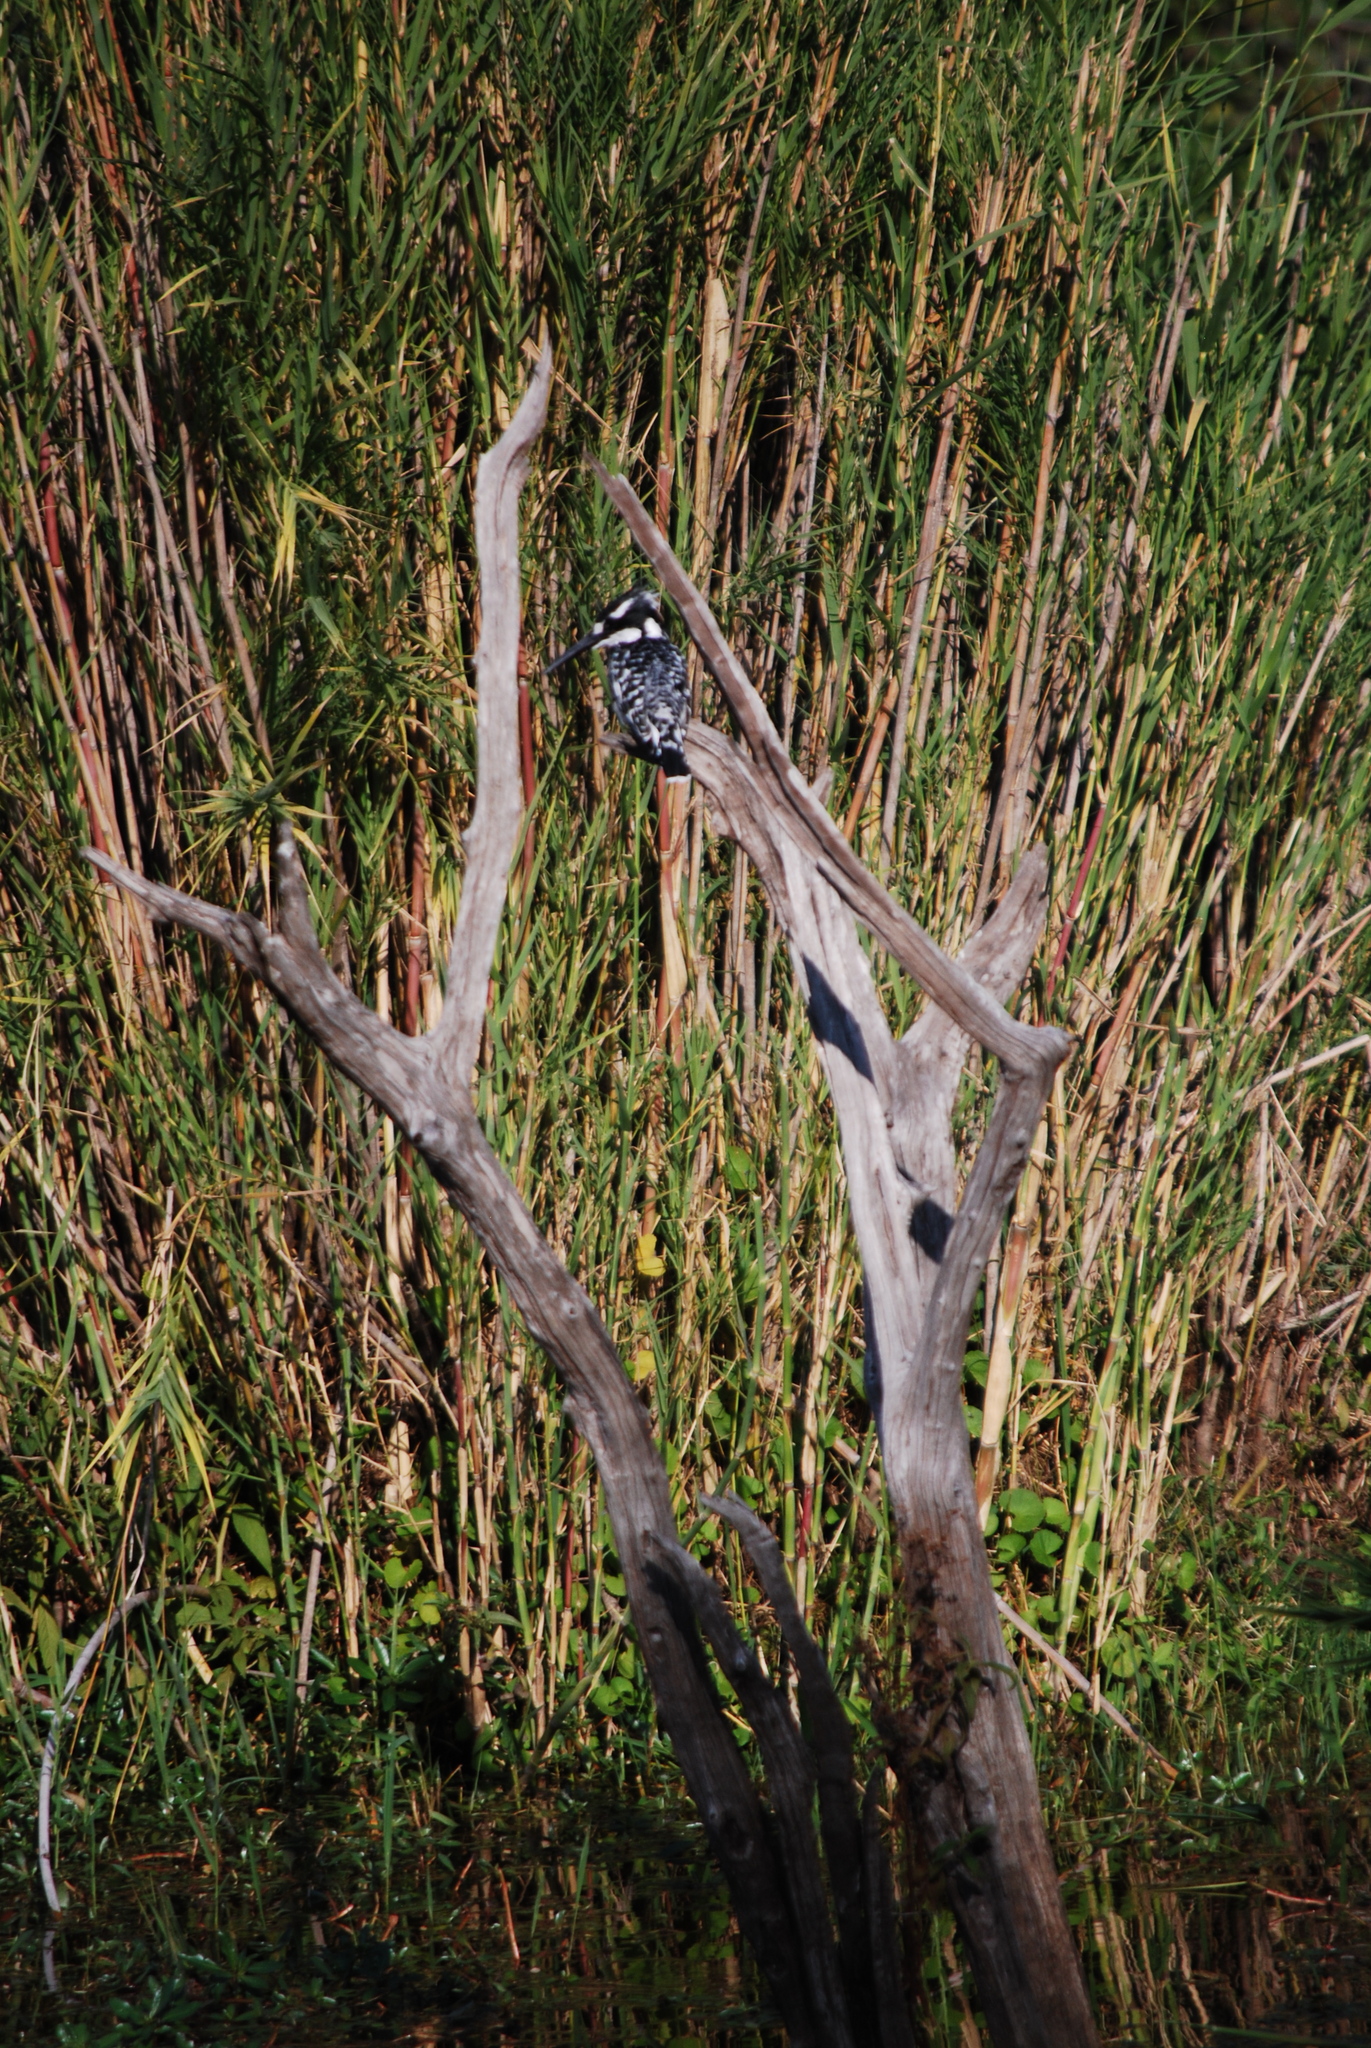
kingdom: Animalia
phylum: Chordata
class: Aves
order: Coraciiformes
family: Alcedinidae
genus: Ceryle
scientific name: Ceryle rudis
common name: Pied kingfisher
